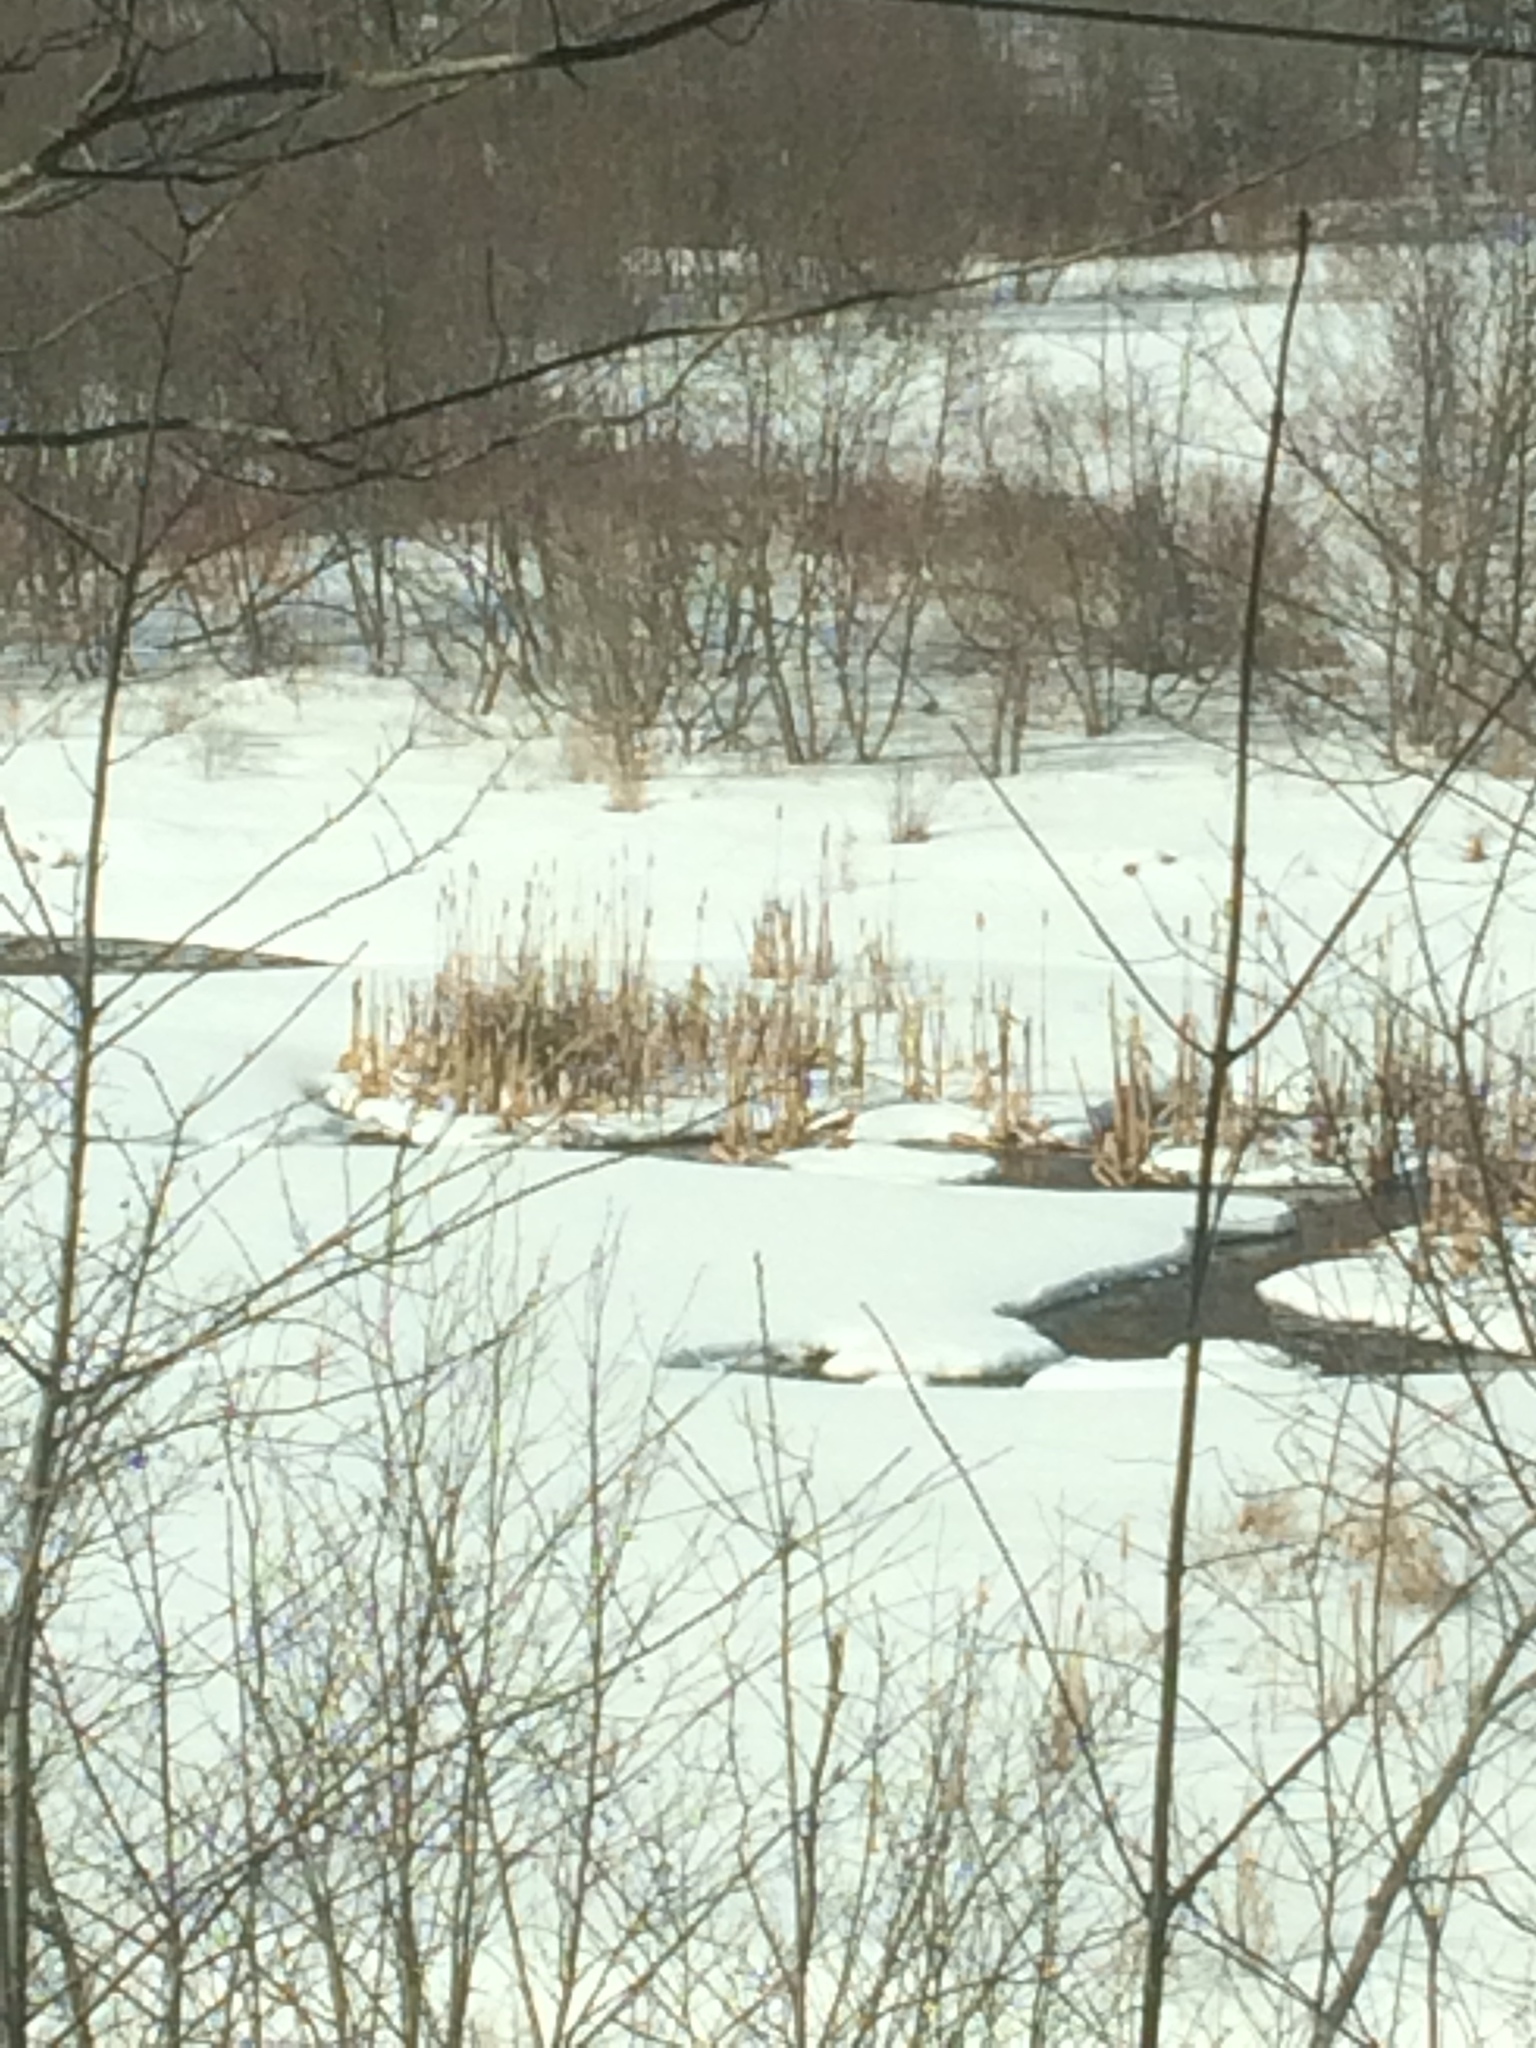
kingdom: Plantae
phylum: Tracheophyta
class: Liliopsida
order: Poales
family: Typhaceae
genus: Typha
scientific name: Typha
